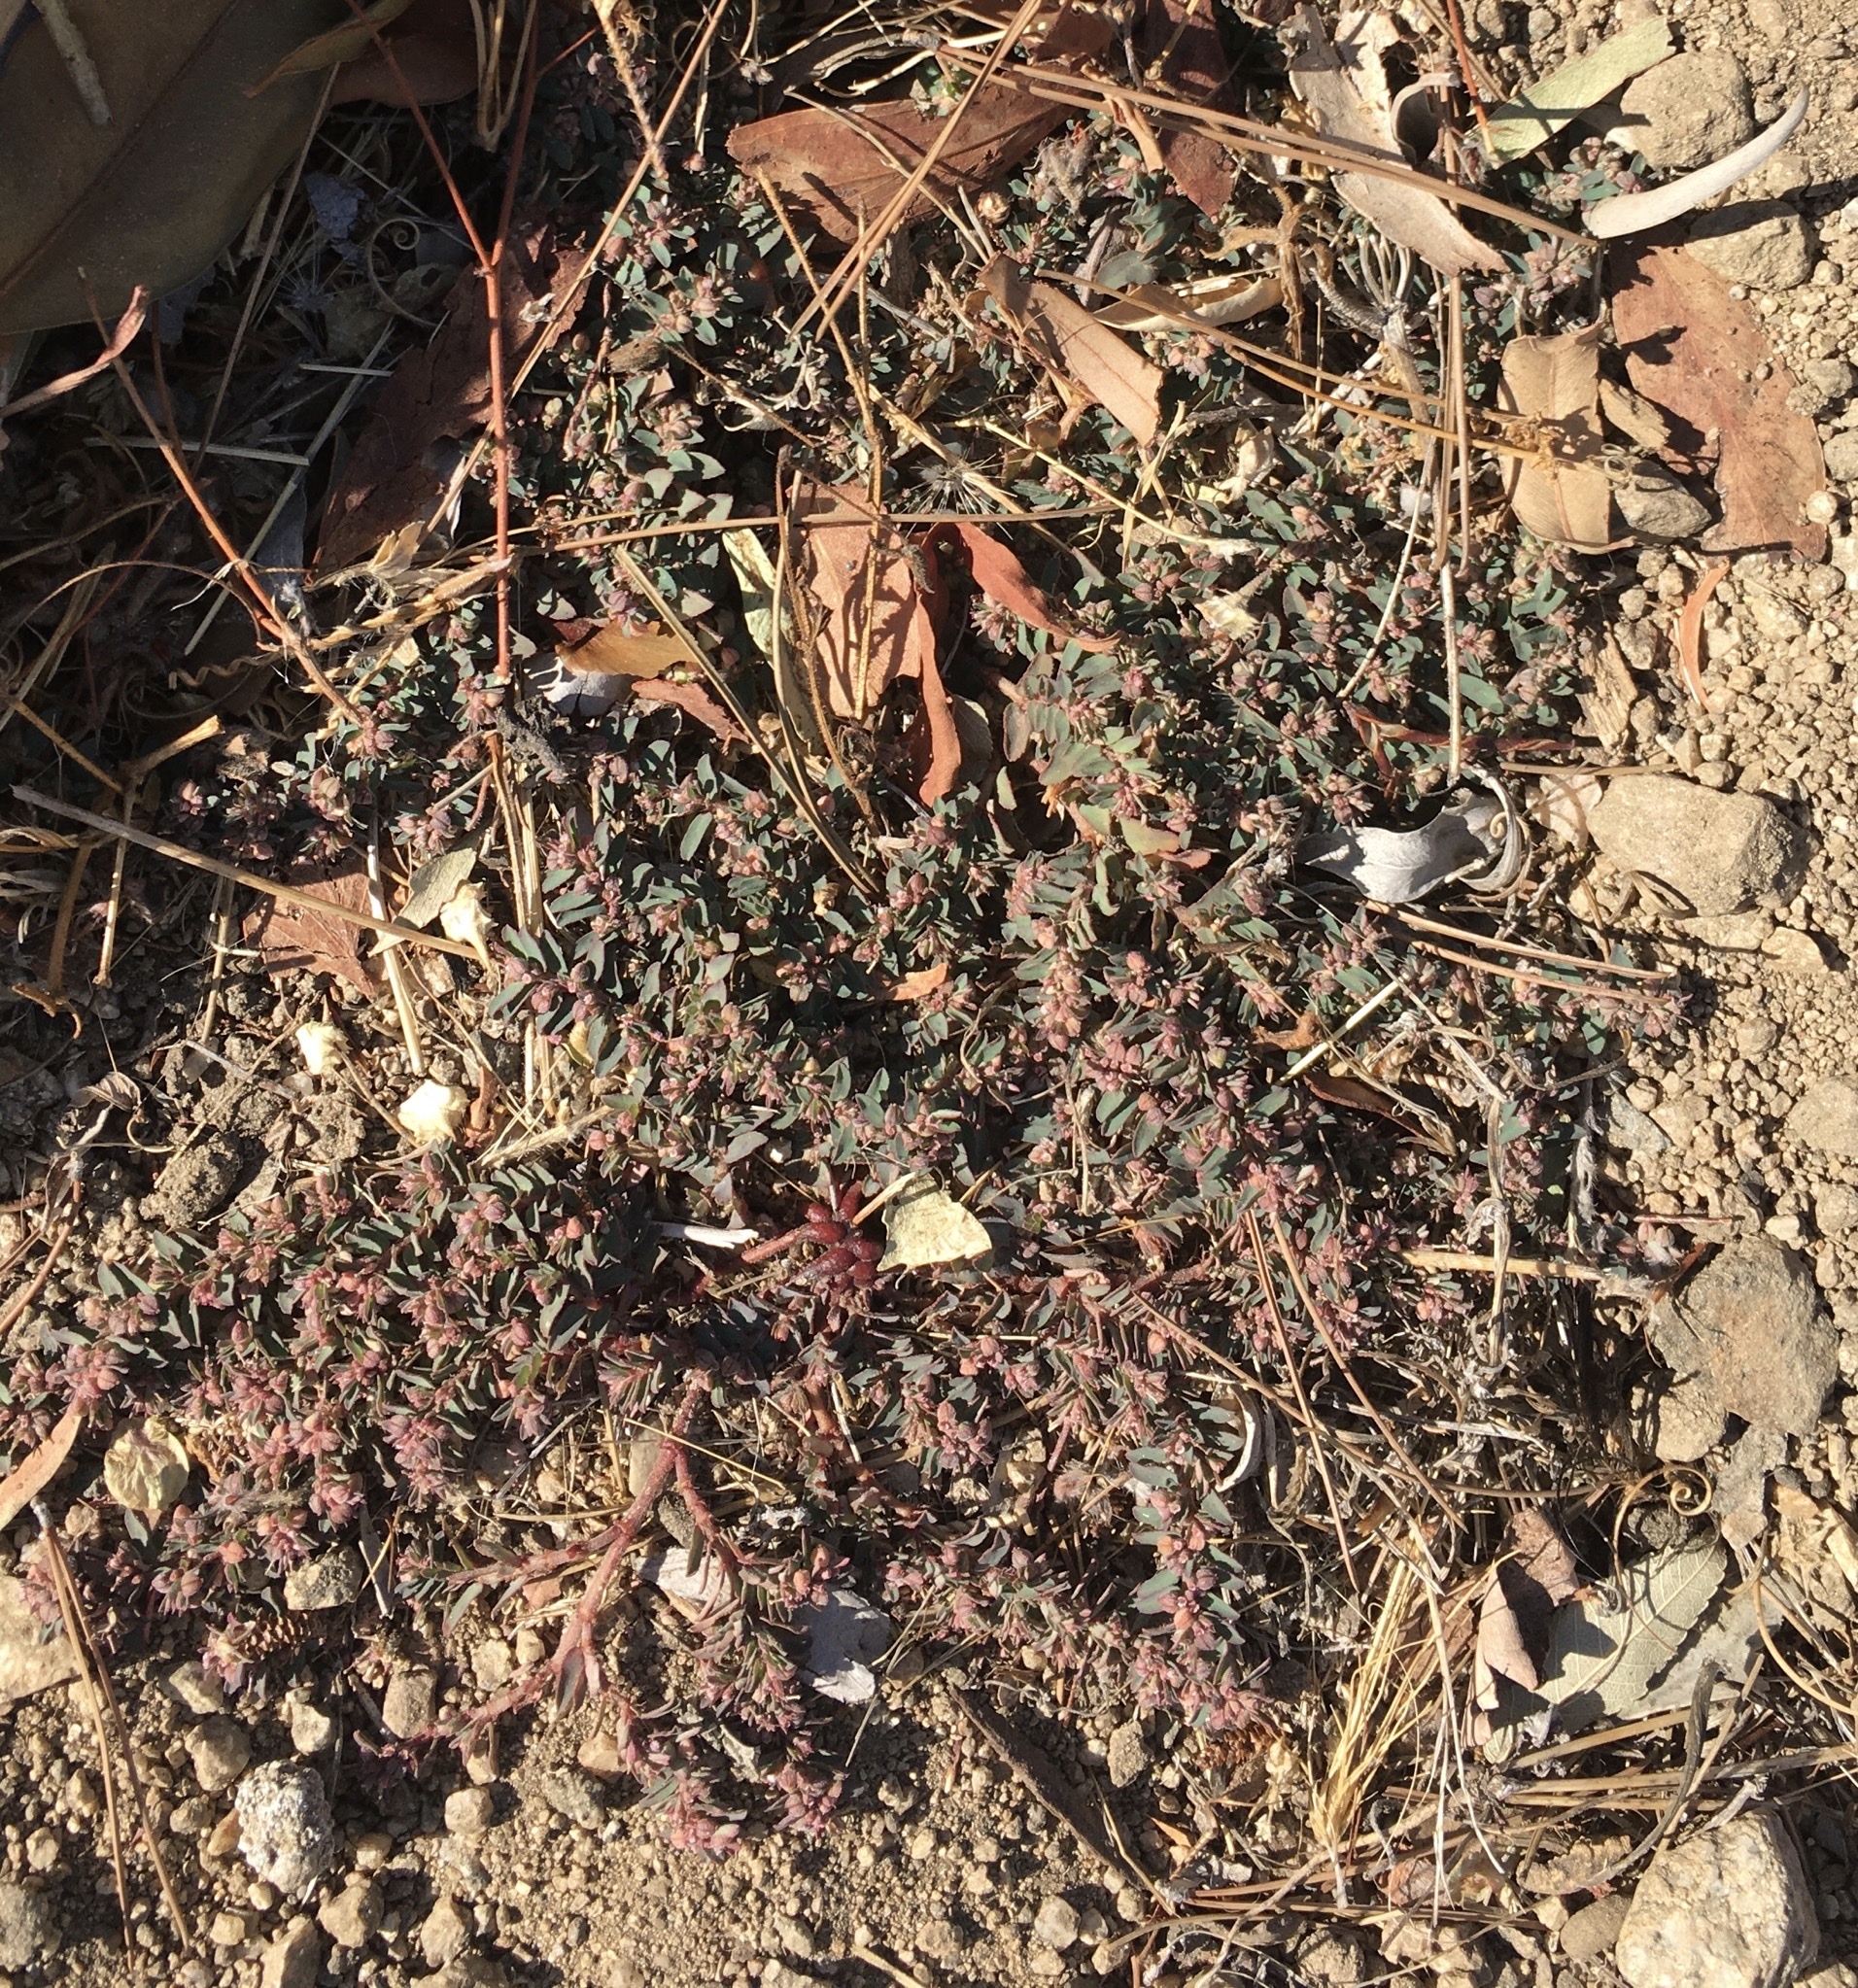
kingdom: Plantae
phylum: Tracheophyta
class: Magnoliopsida
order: Malpighiales
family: Euphorbiaceae
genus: Euphorbia
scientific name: Euphorbia maculata
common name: Spotted spurge
